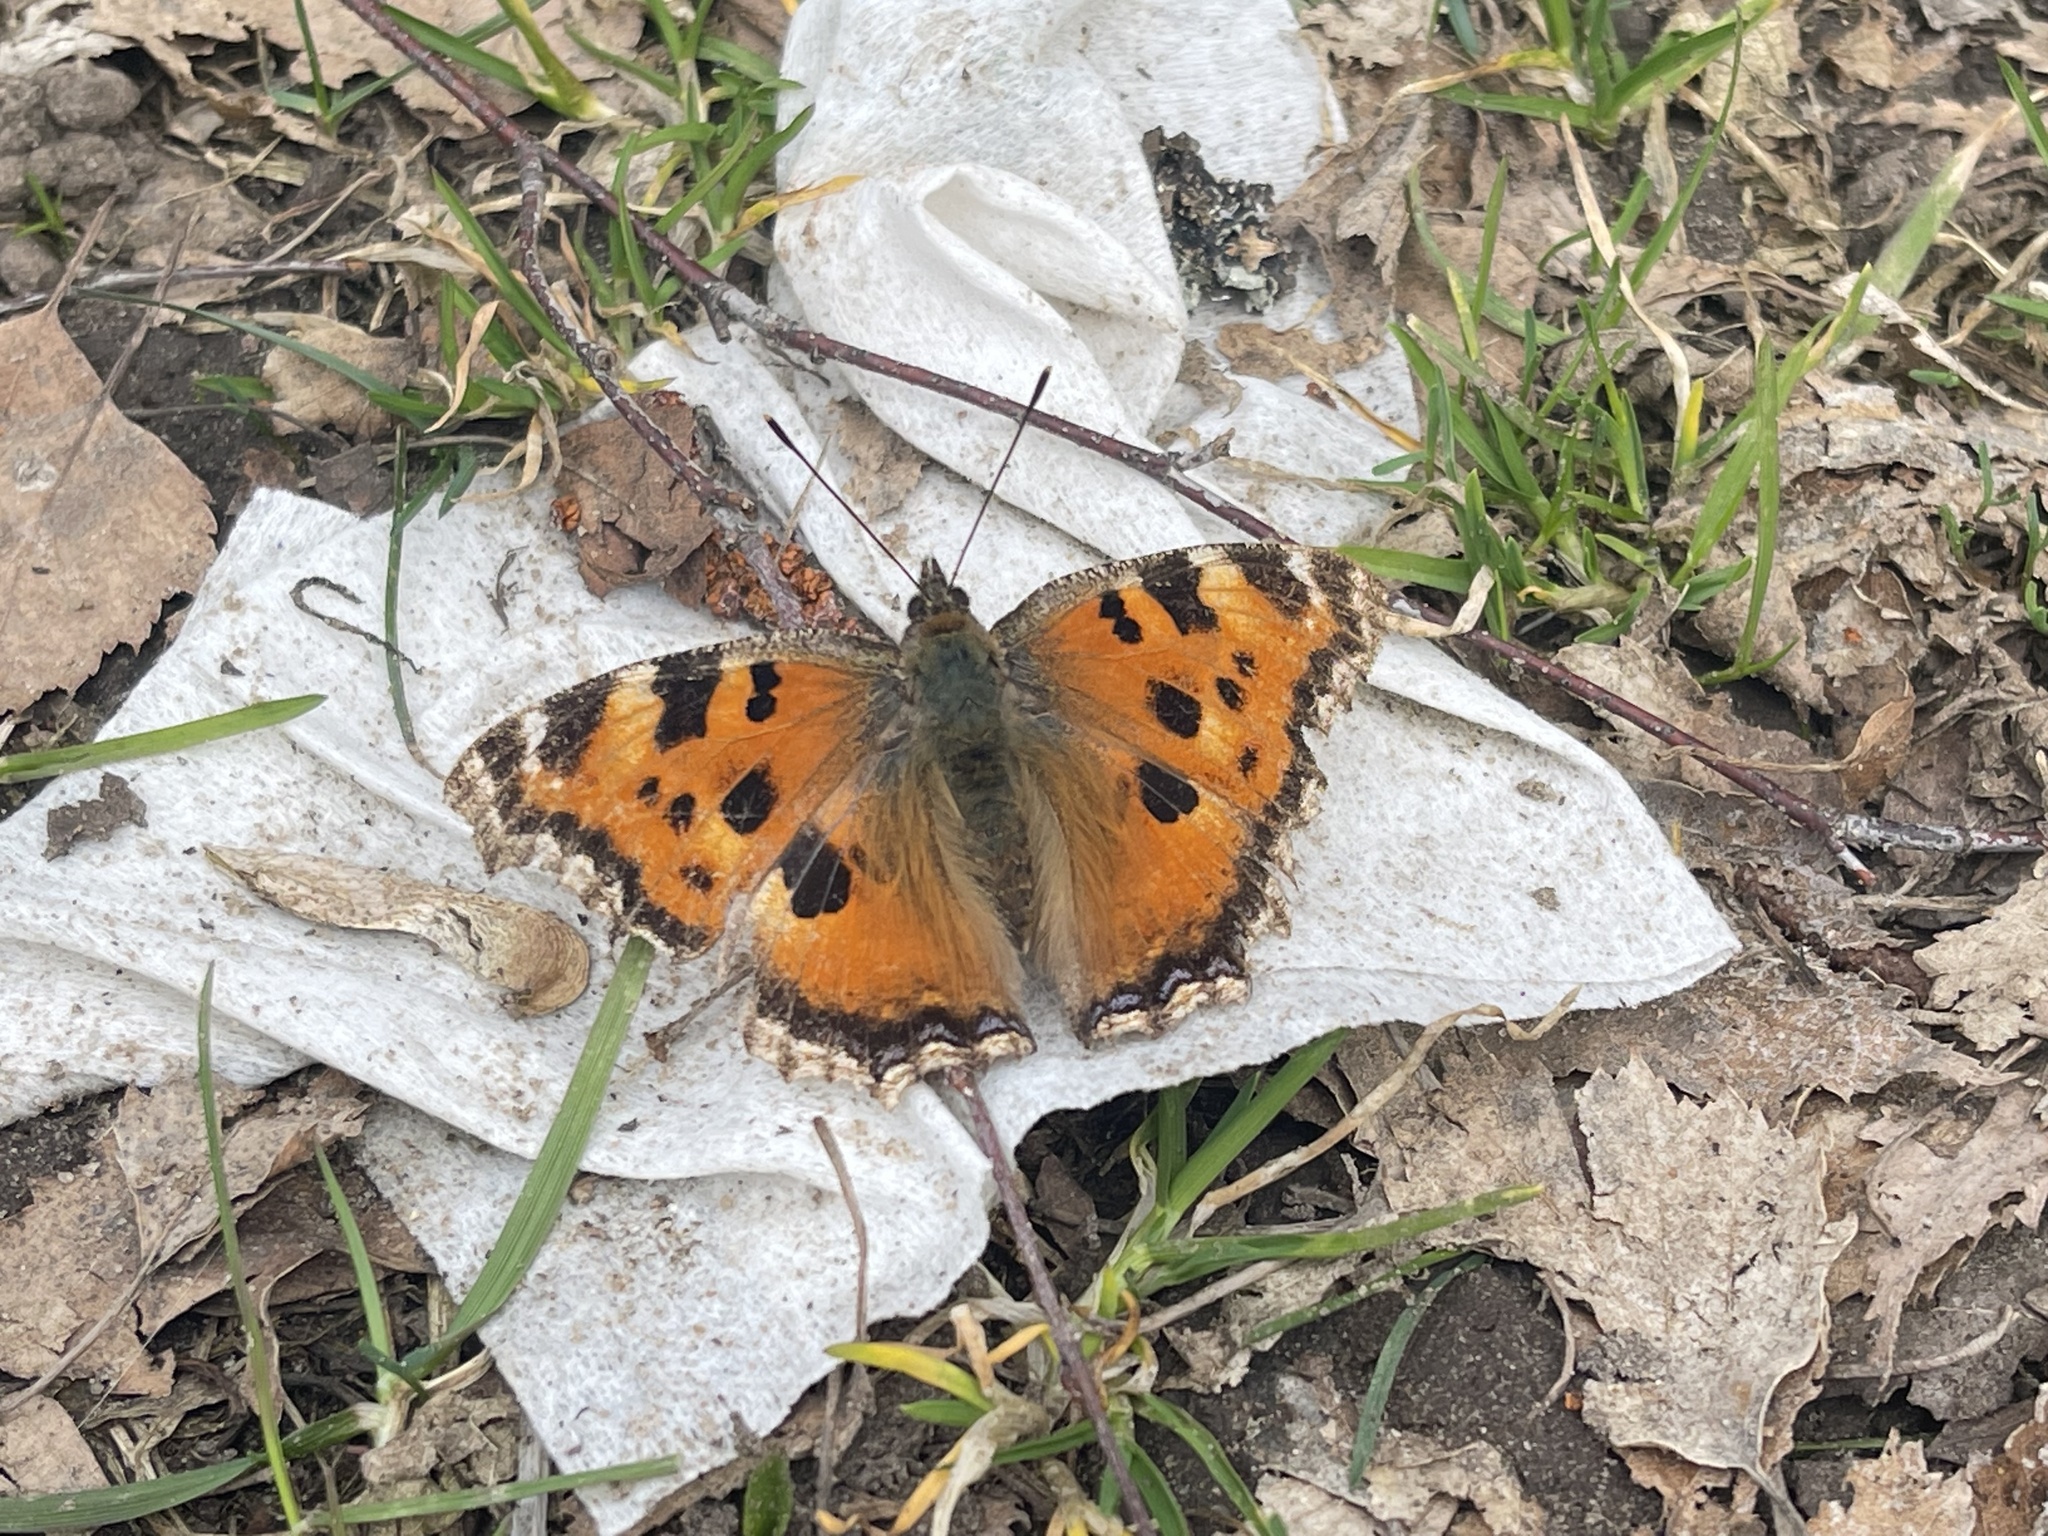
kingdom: Animalia
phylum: Arthropoda
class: Insecta
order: Lepidoptera
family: Nymphalidae
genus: Nymphalis
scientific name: Nymphalis xanthomelas
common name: Scarce tortoiseshell
